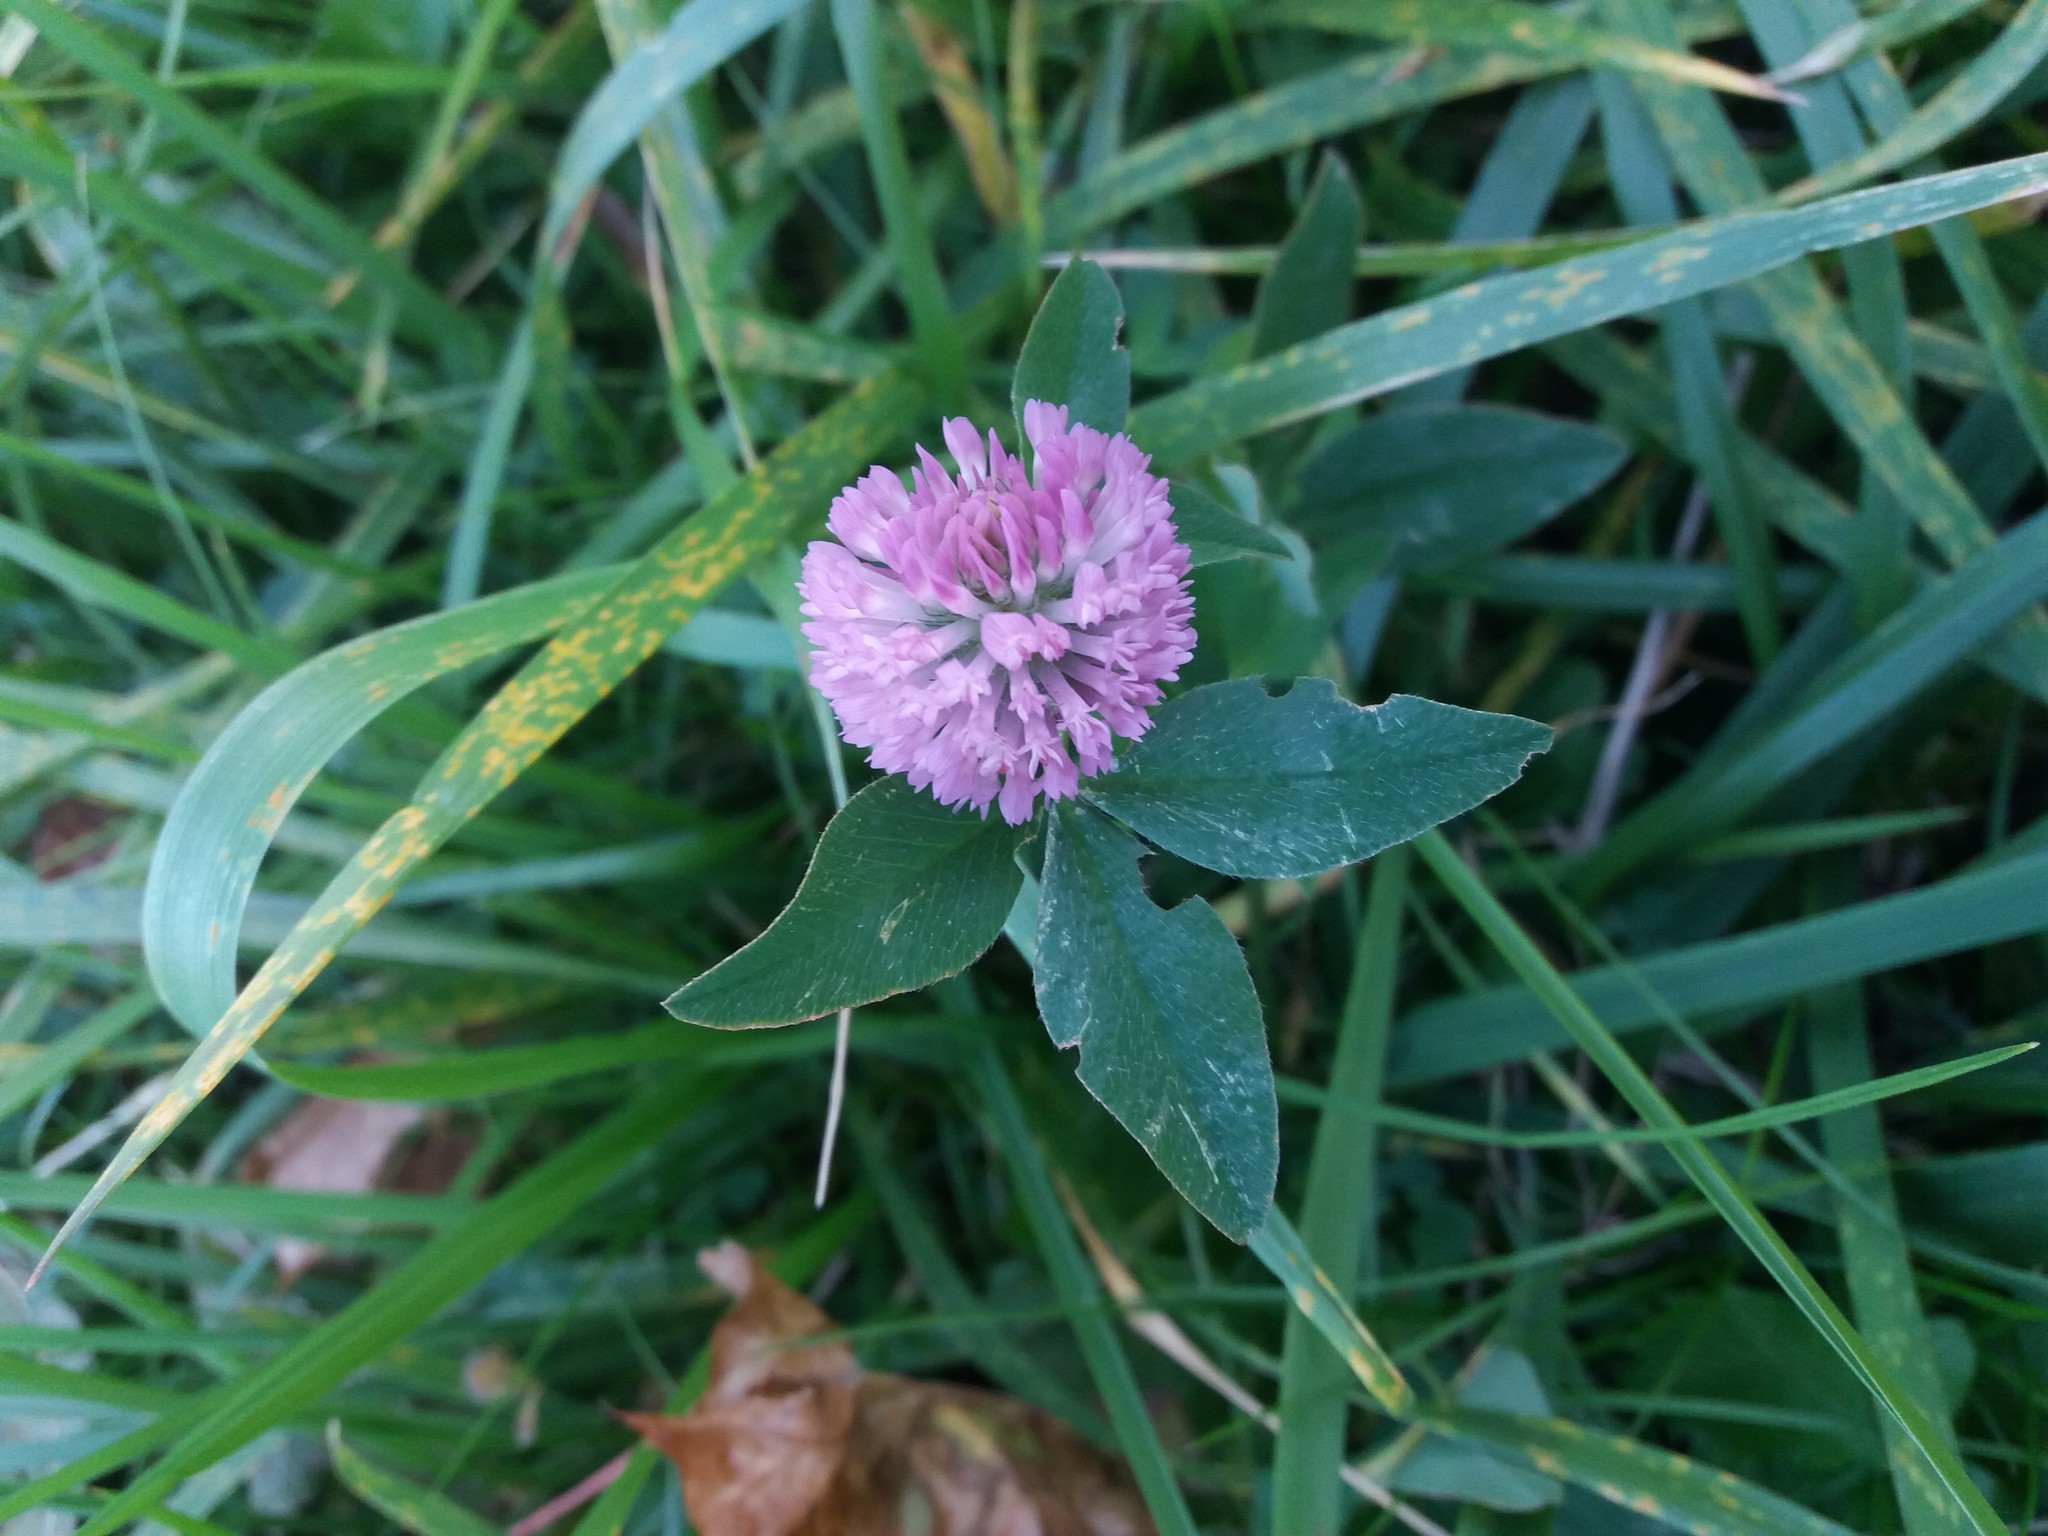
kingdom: Plantae
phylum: Tracheophyta
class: Magnoliopsida
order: Fabales
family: Fabaceae
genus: Trifolium
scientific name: Trifolium medium
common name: Zigzag clover
